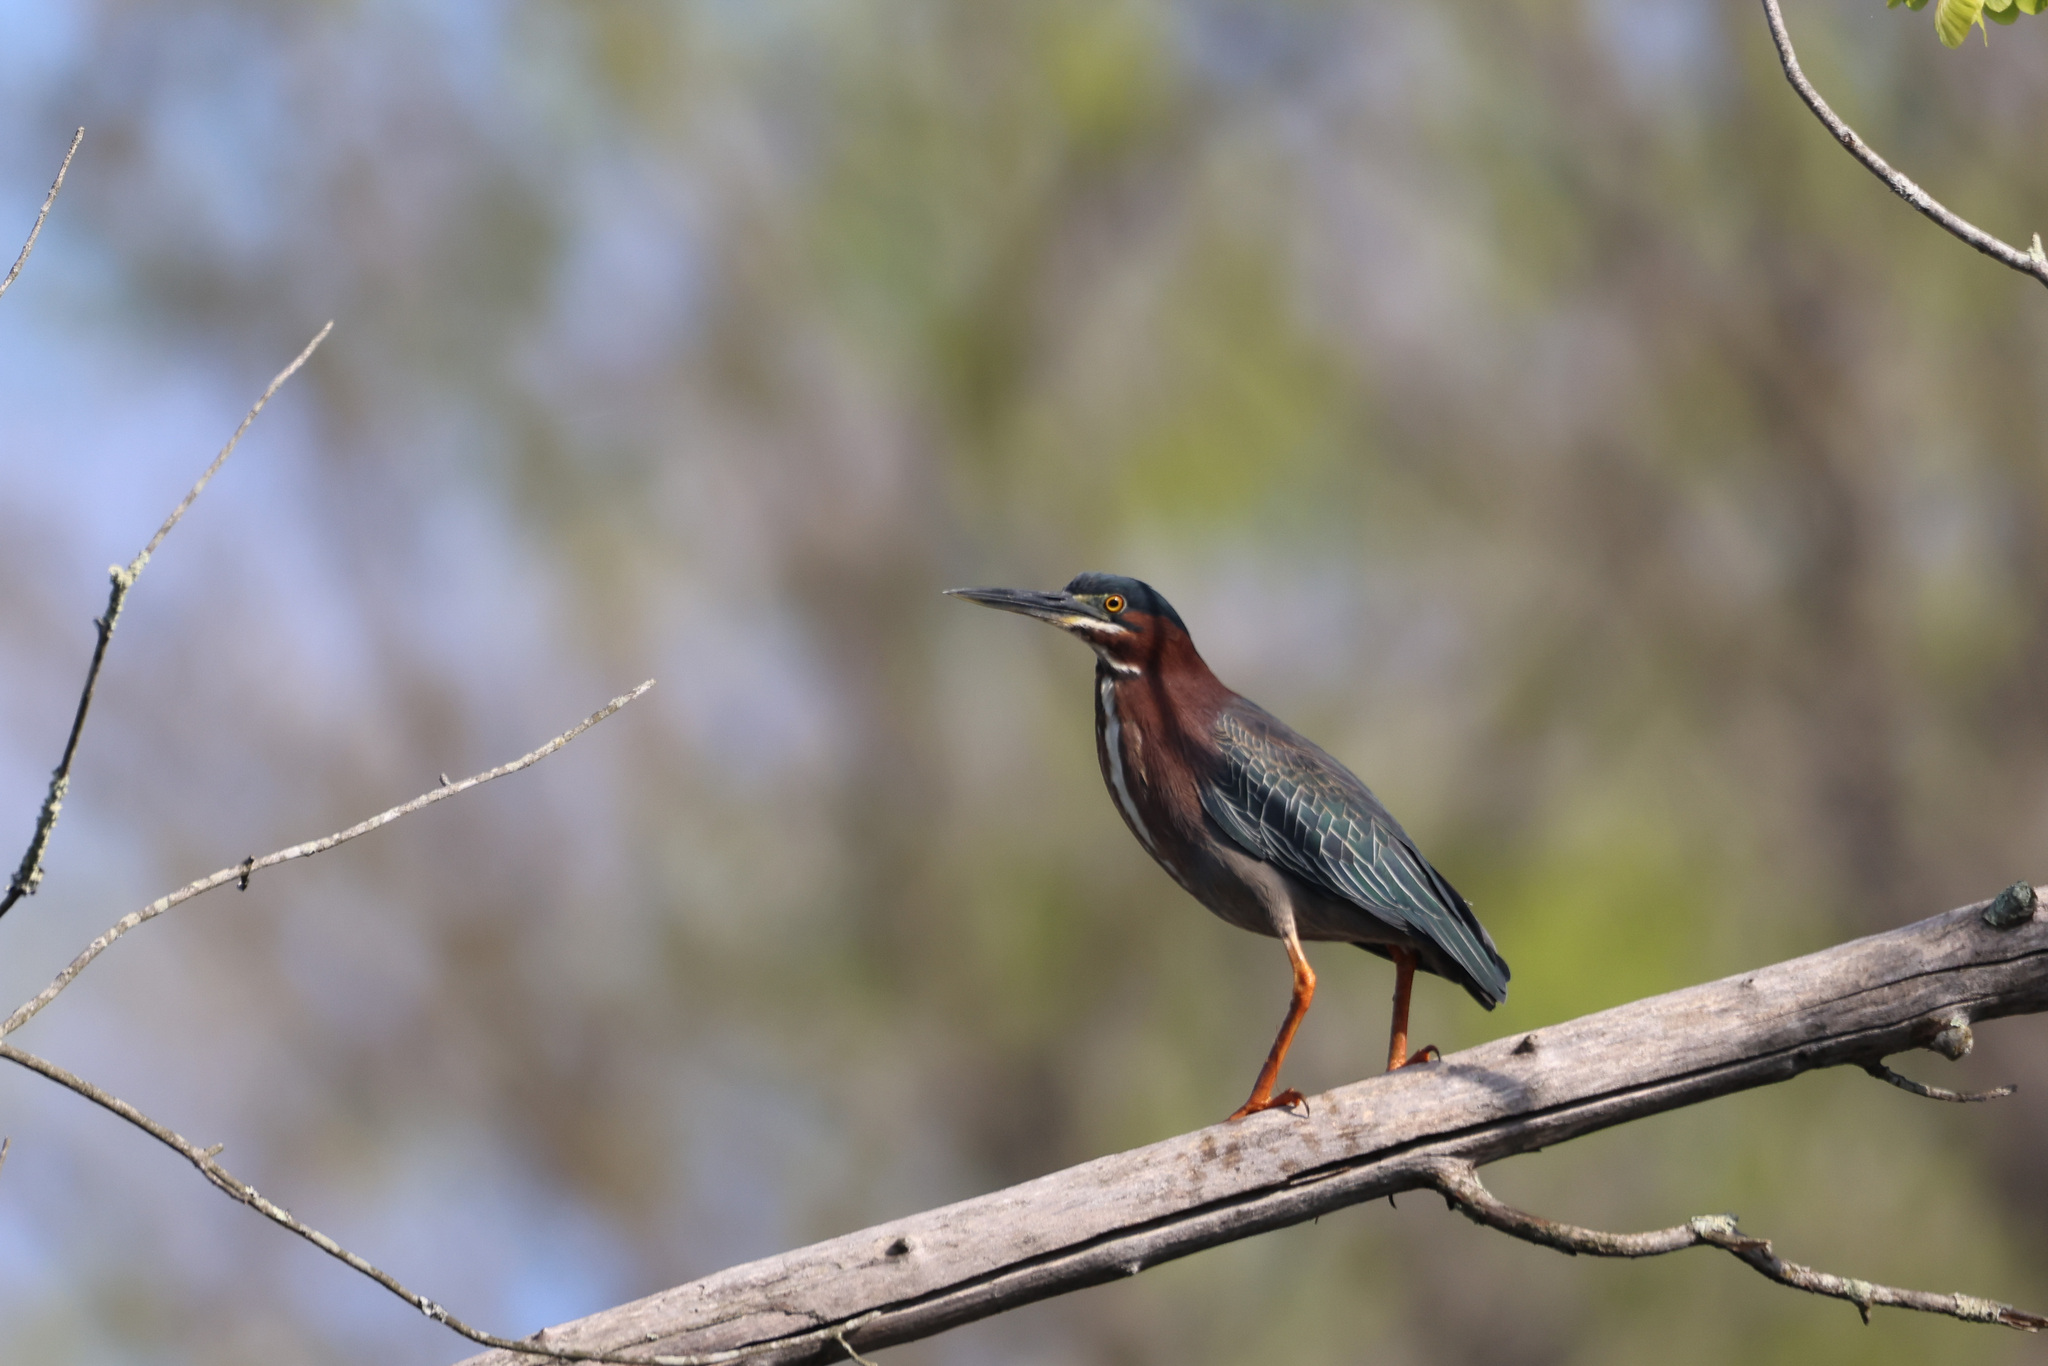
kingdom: Animalia
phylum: Chordata
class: Aves
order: Pelecaniformes
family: Ardeidae
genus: Butorides
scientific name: Butorides virescens
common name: Green heron
